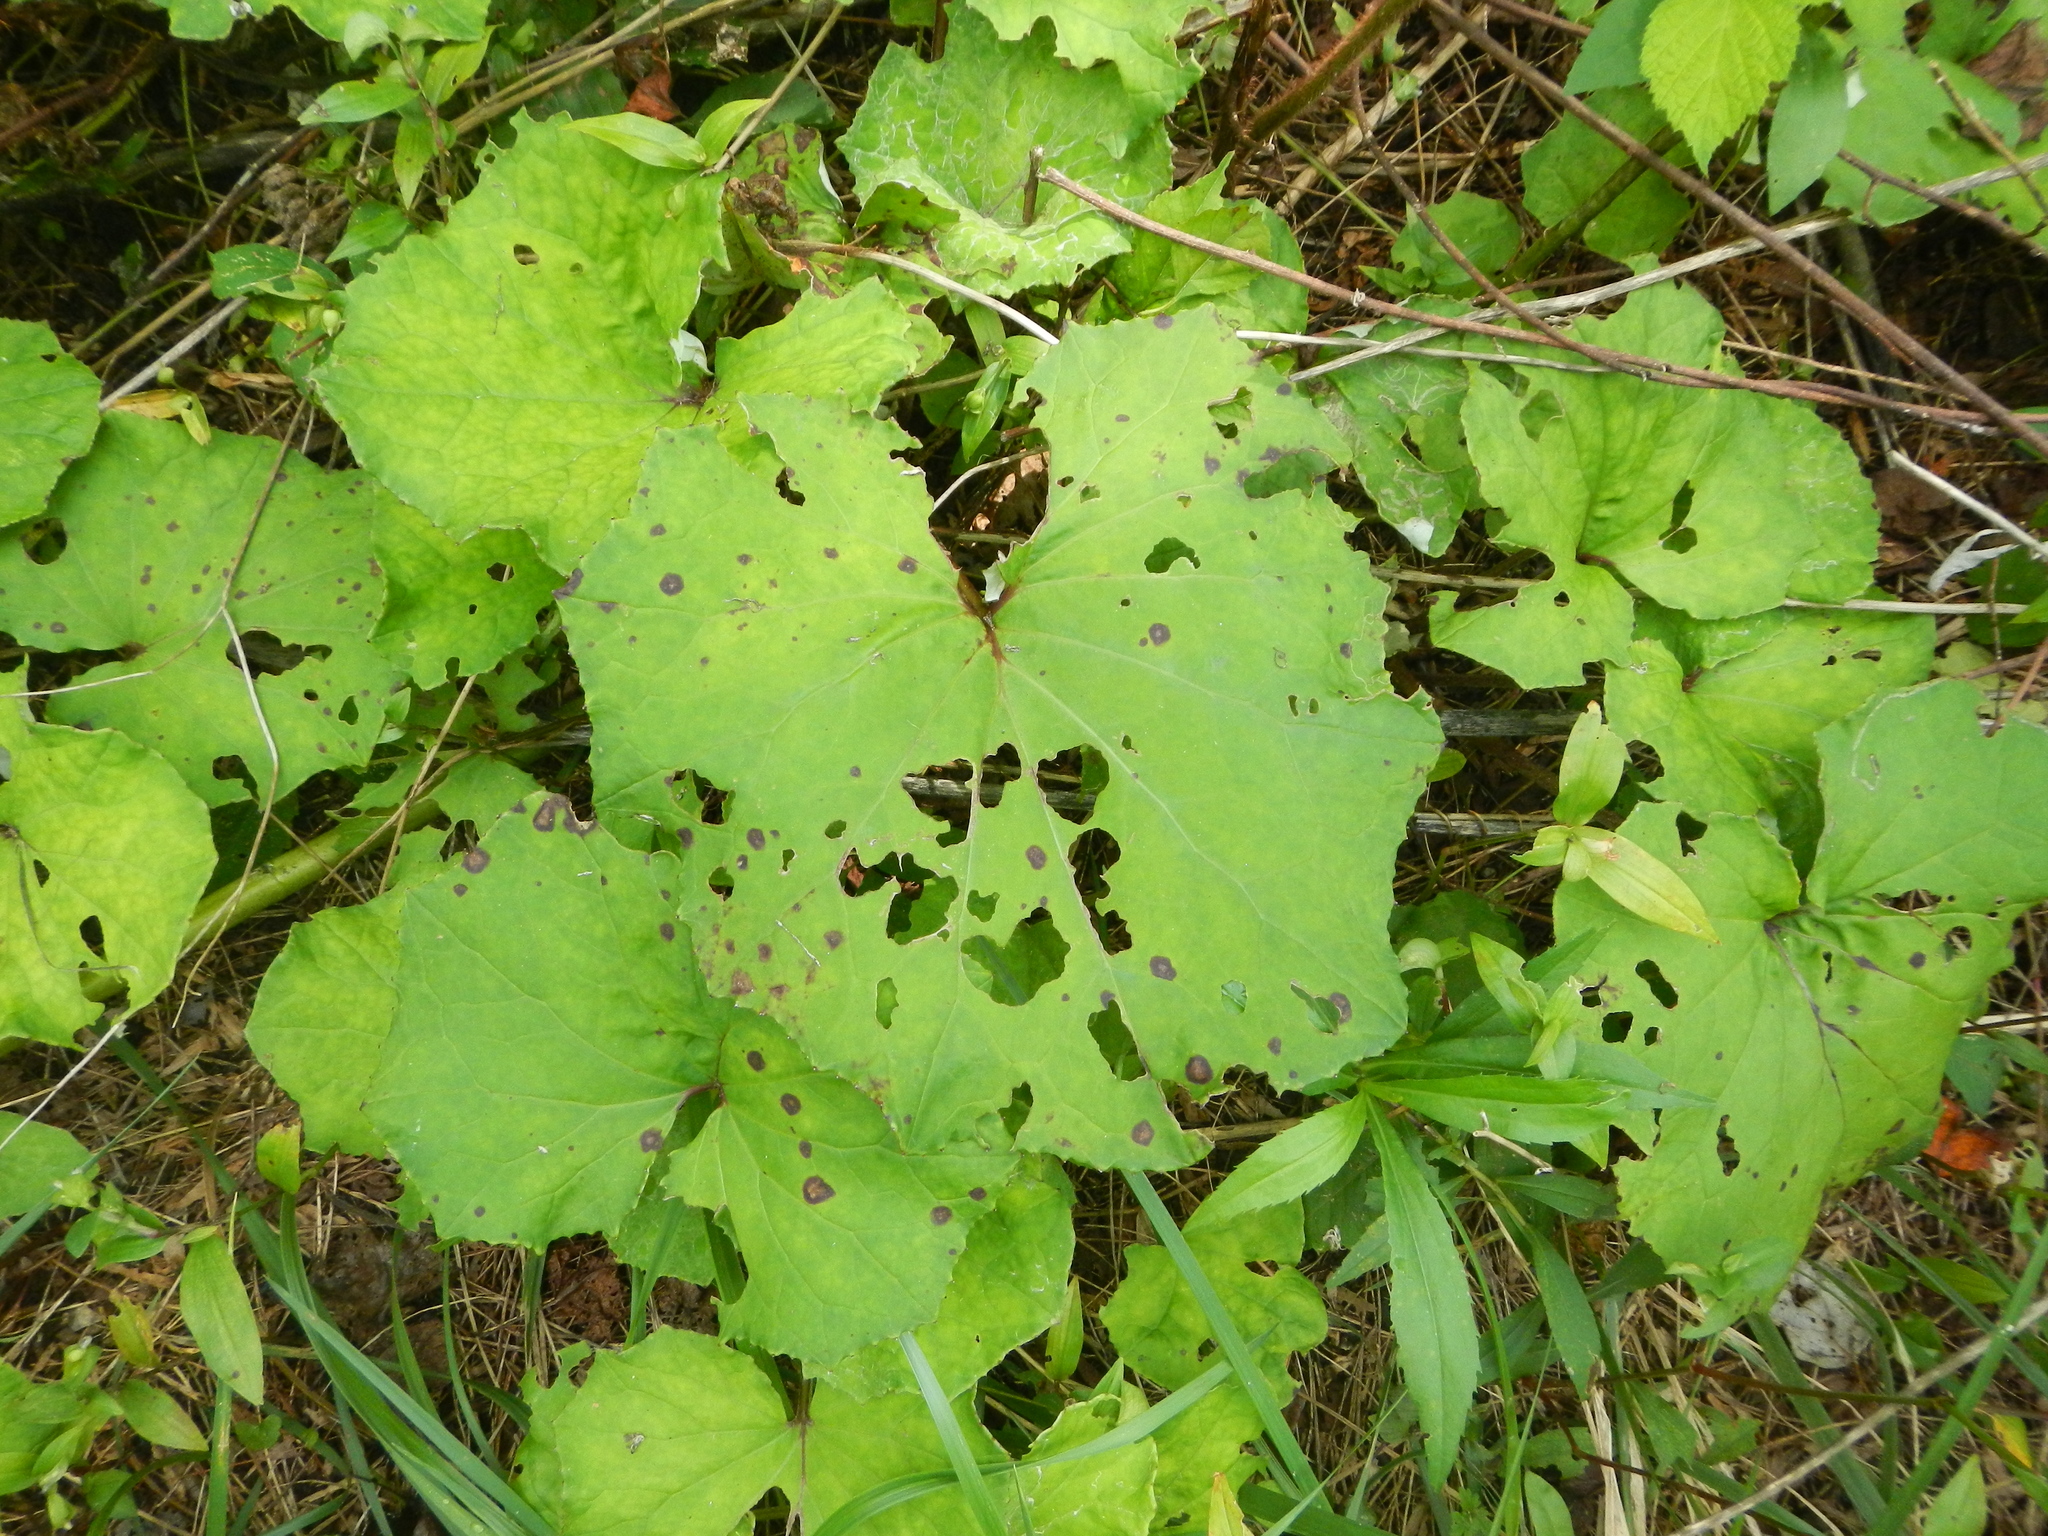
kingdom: Plantae
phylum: Tracheophyta
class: Magnoliopsida
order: Asterales
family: Asteraceae
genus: Tussilago
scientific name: Tussilago farfara
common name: Coltsfoot
